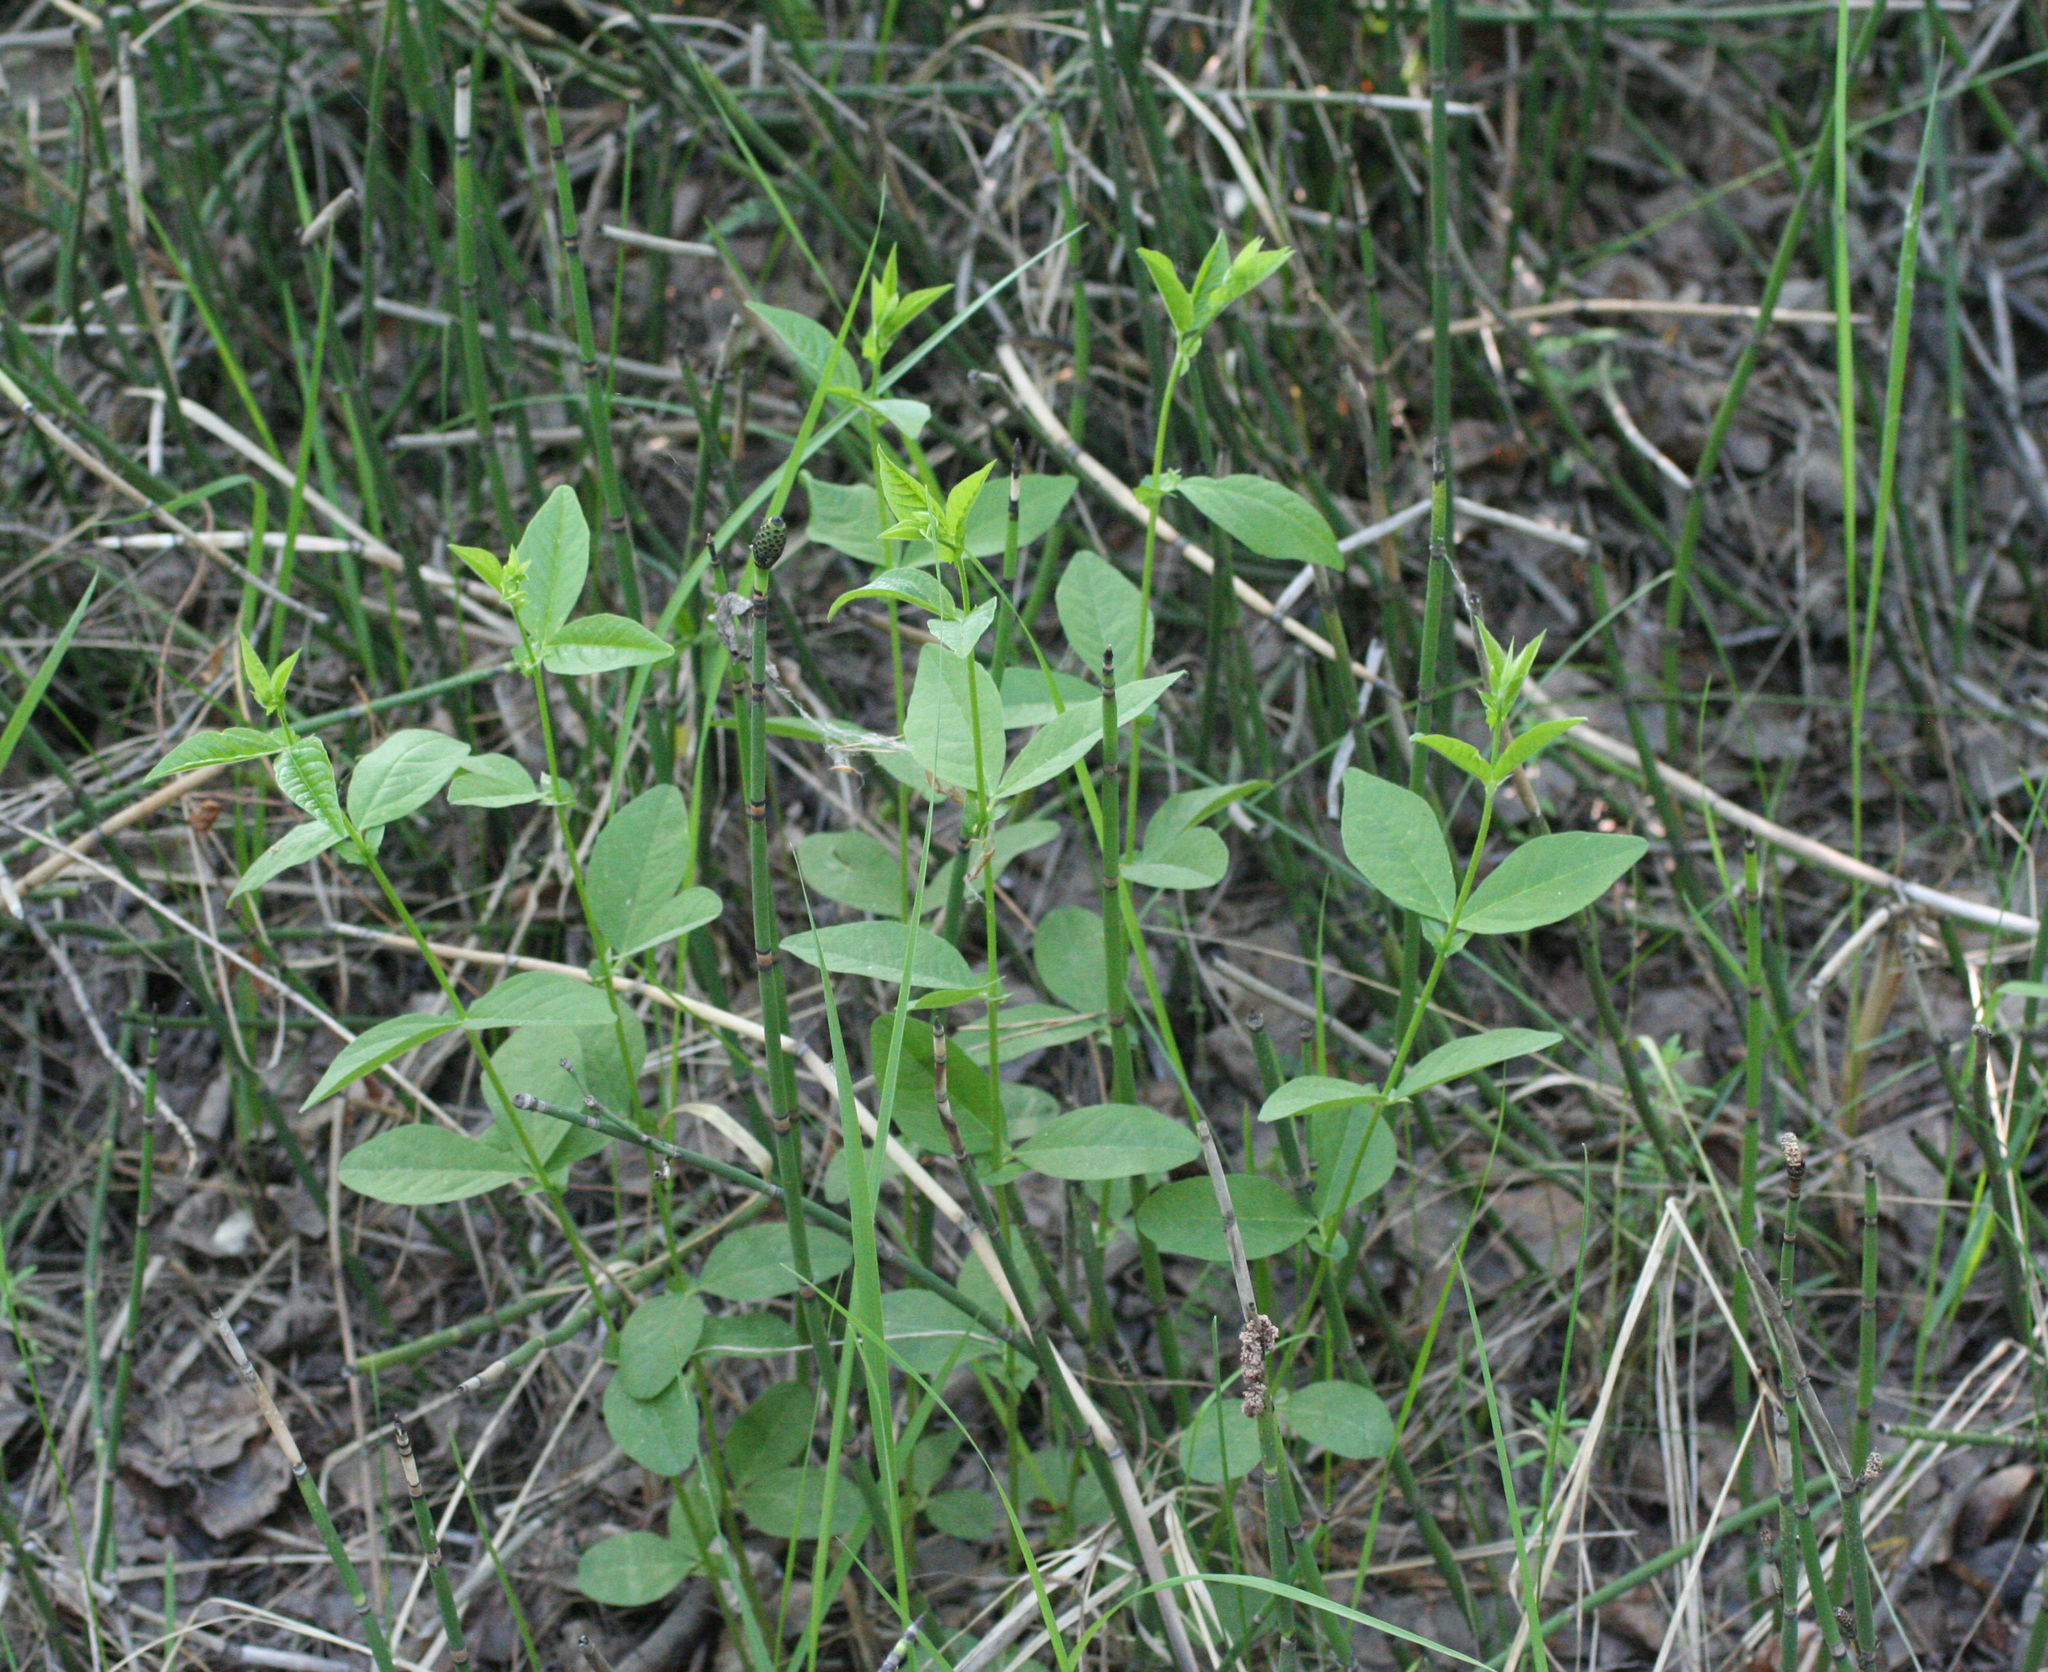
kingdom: Plantae
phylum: Tracheophyta
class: Magnoliopsida
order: Fabales
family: Fabaceae
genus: Vicia
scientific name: Vicia unijuga
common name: Two-leaf vetch
